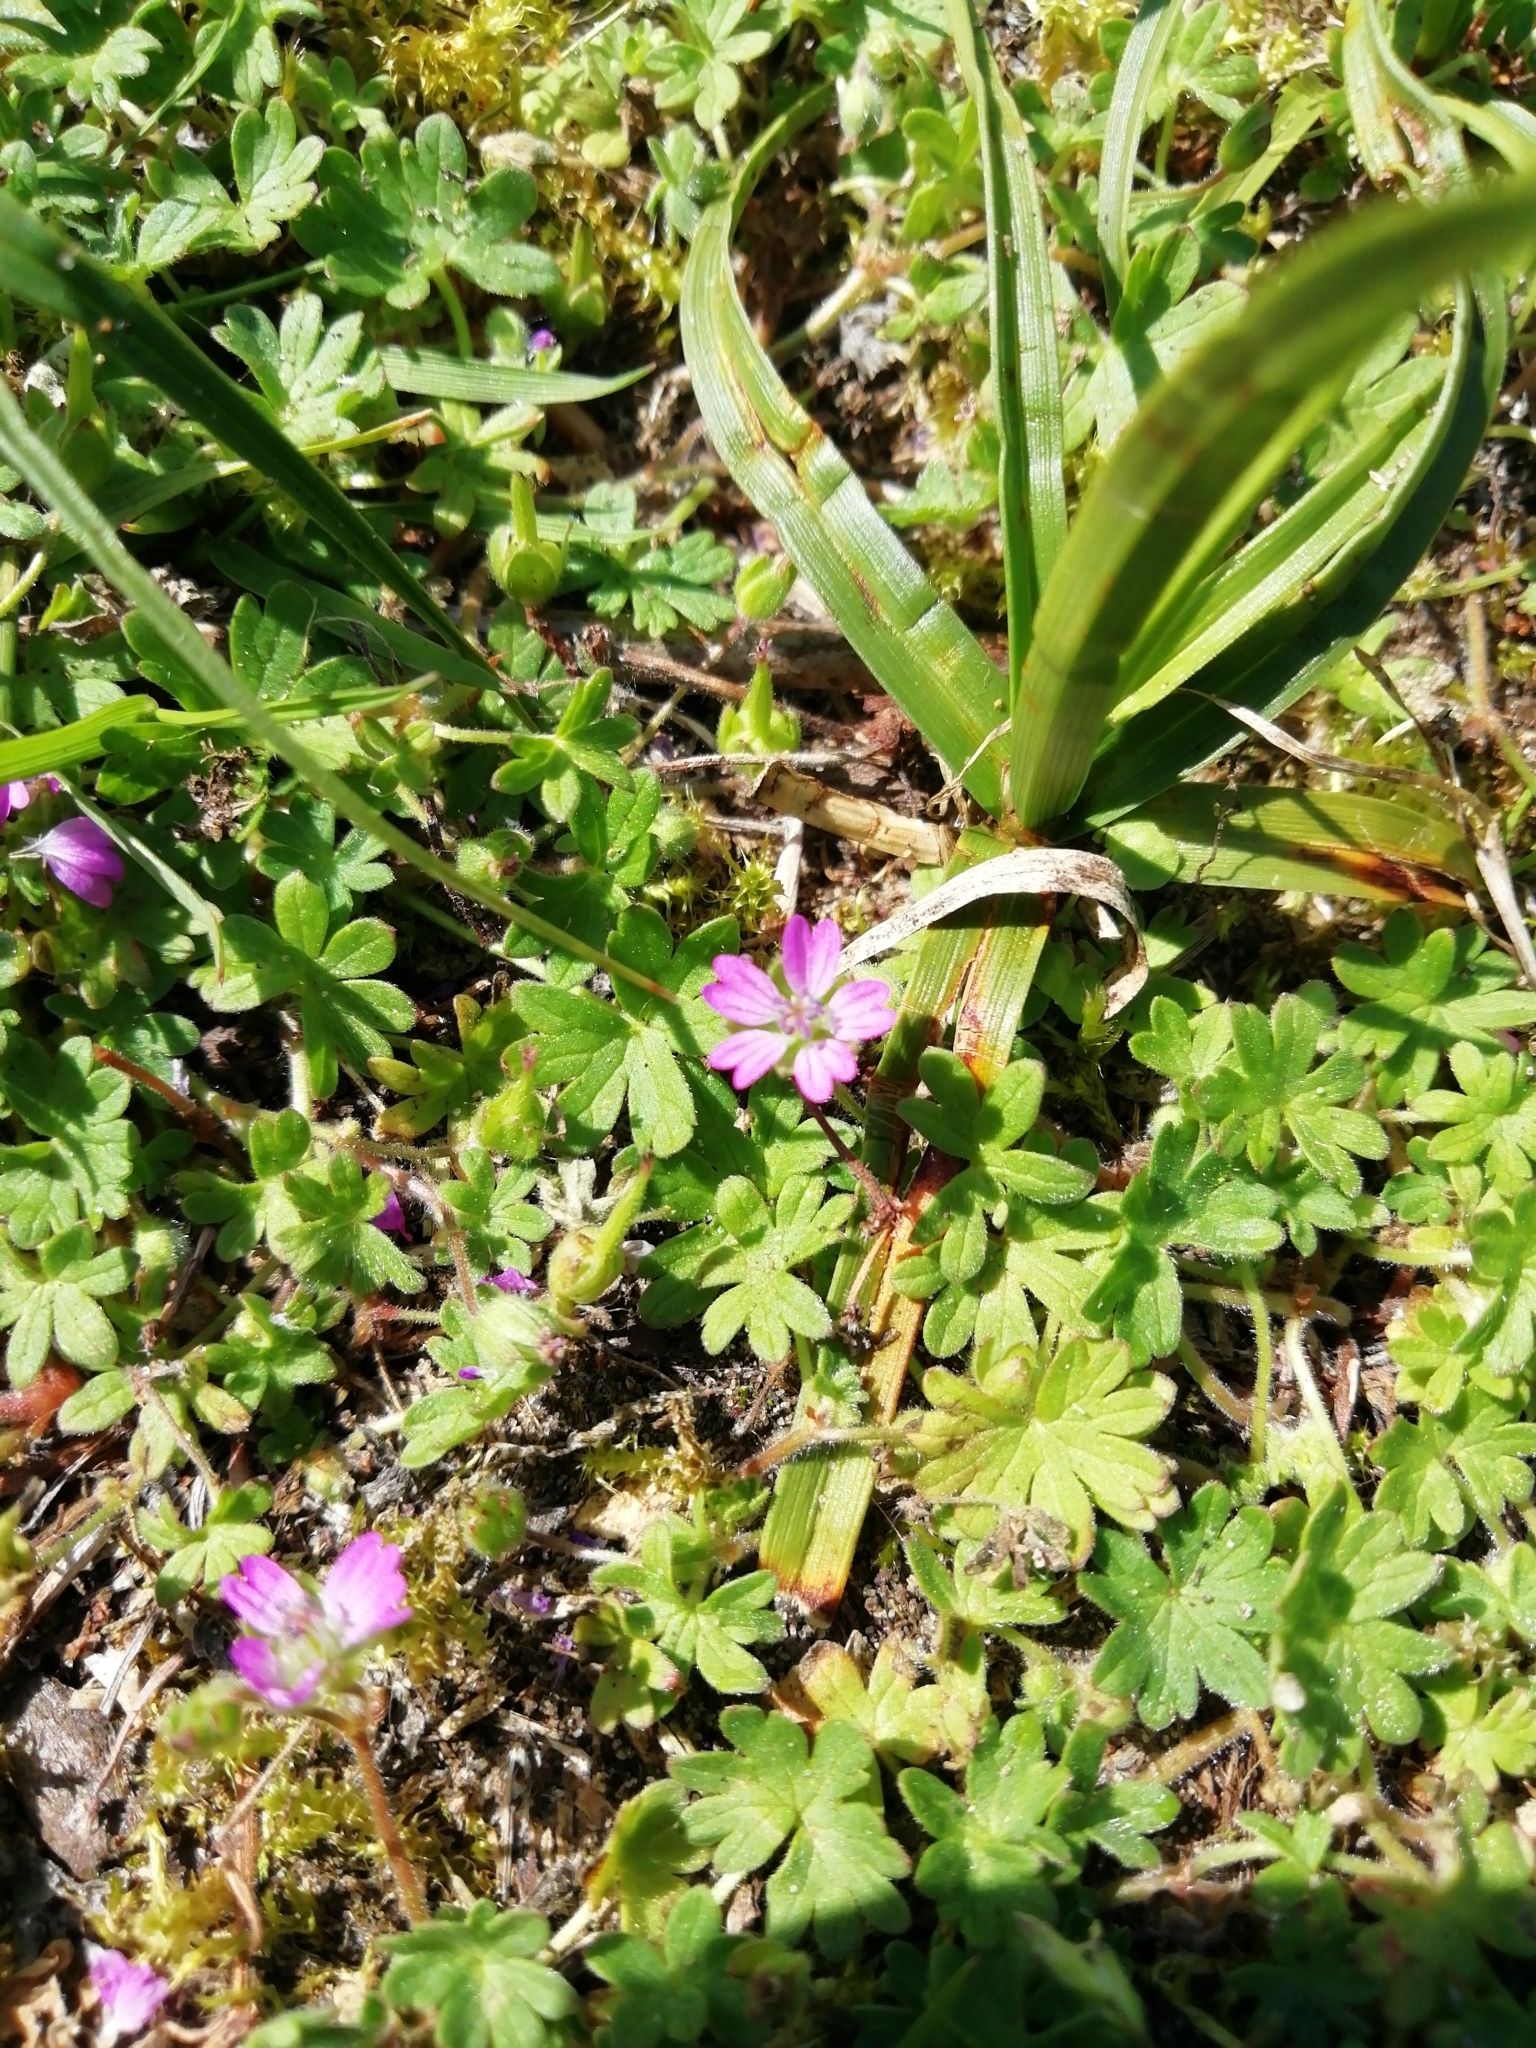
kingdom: Plantae
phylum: Tracheophyta
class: Magnoliopsida
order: Geraniales
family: Geraniaceae
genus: Geranium
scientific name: Geranium molle
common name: Dove's-foot crane's-bill
